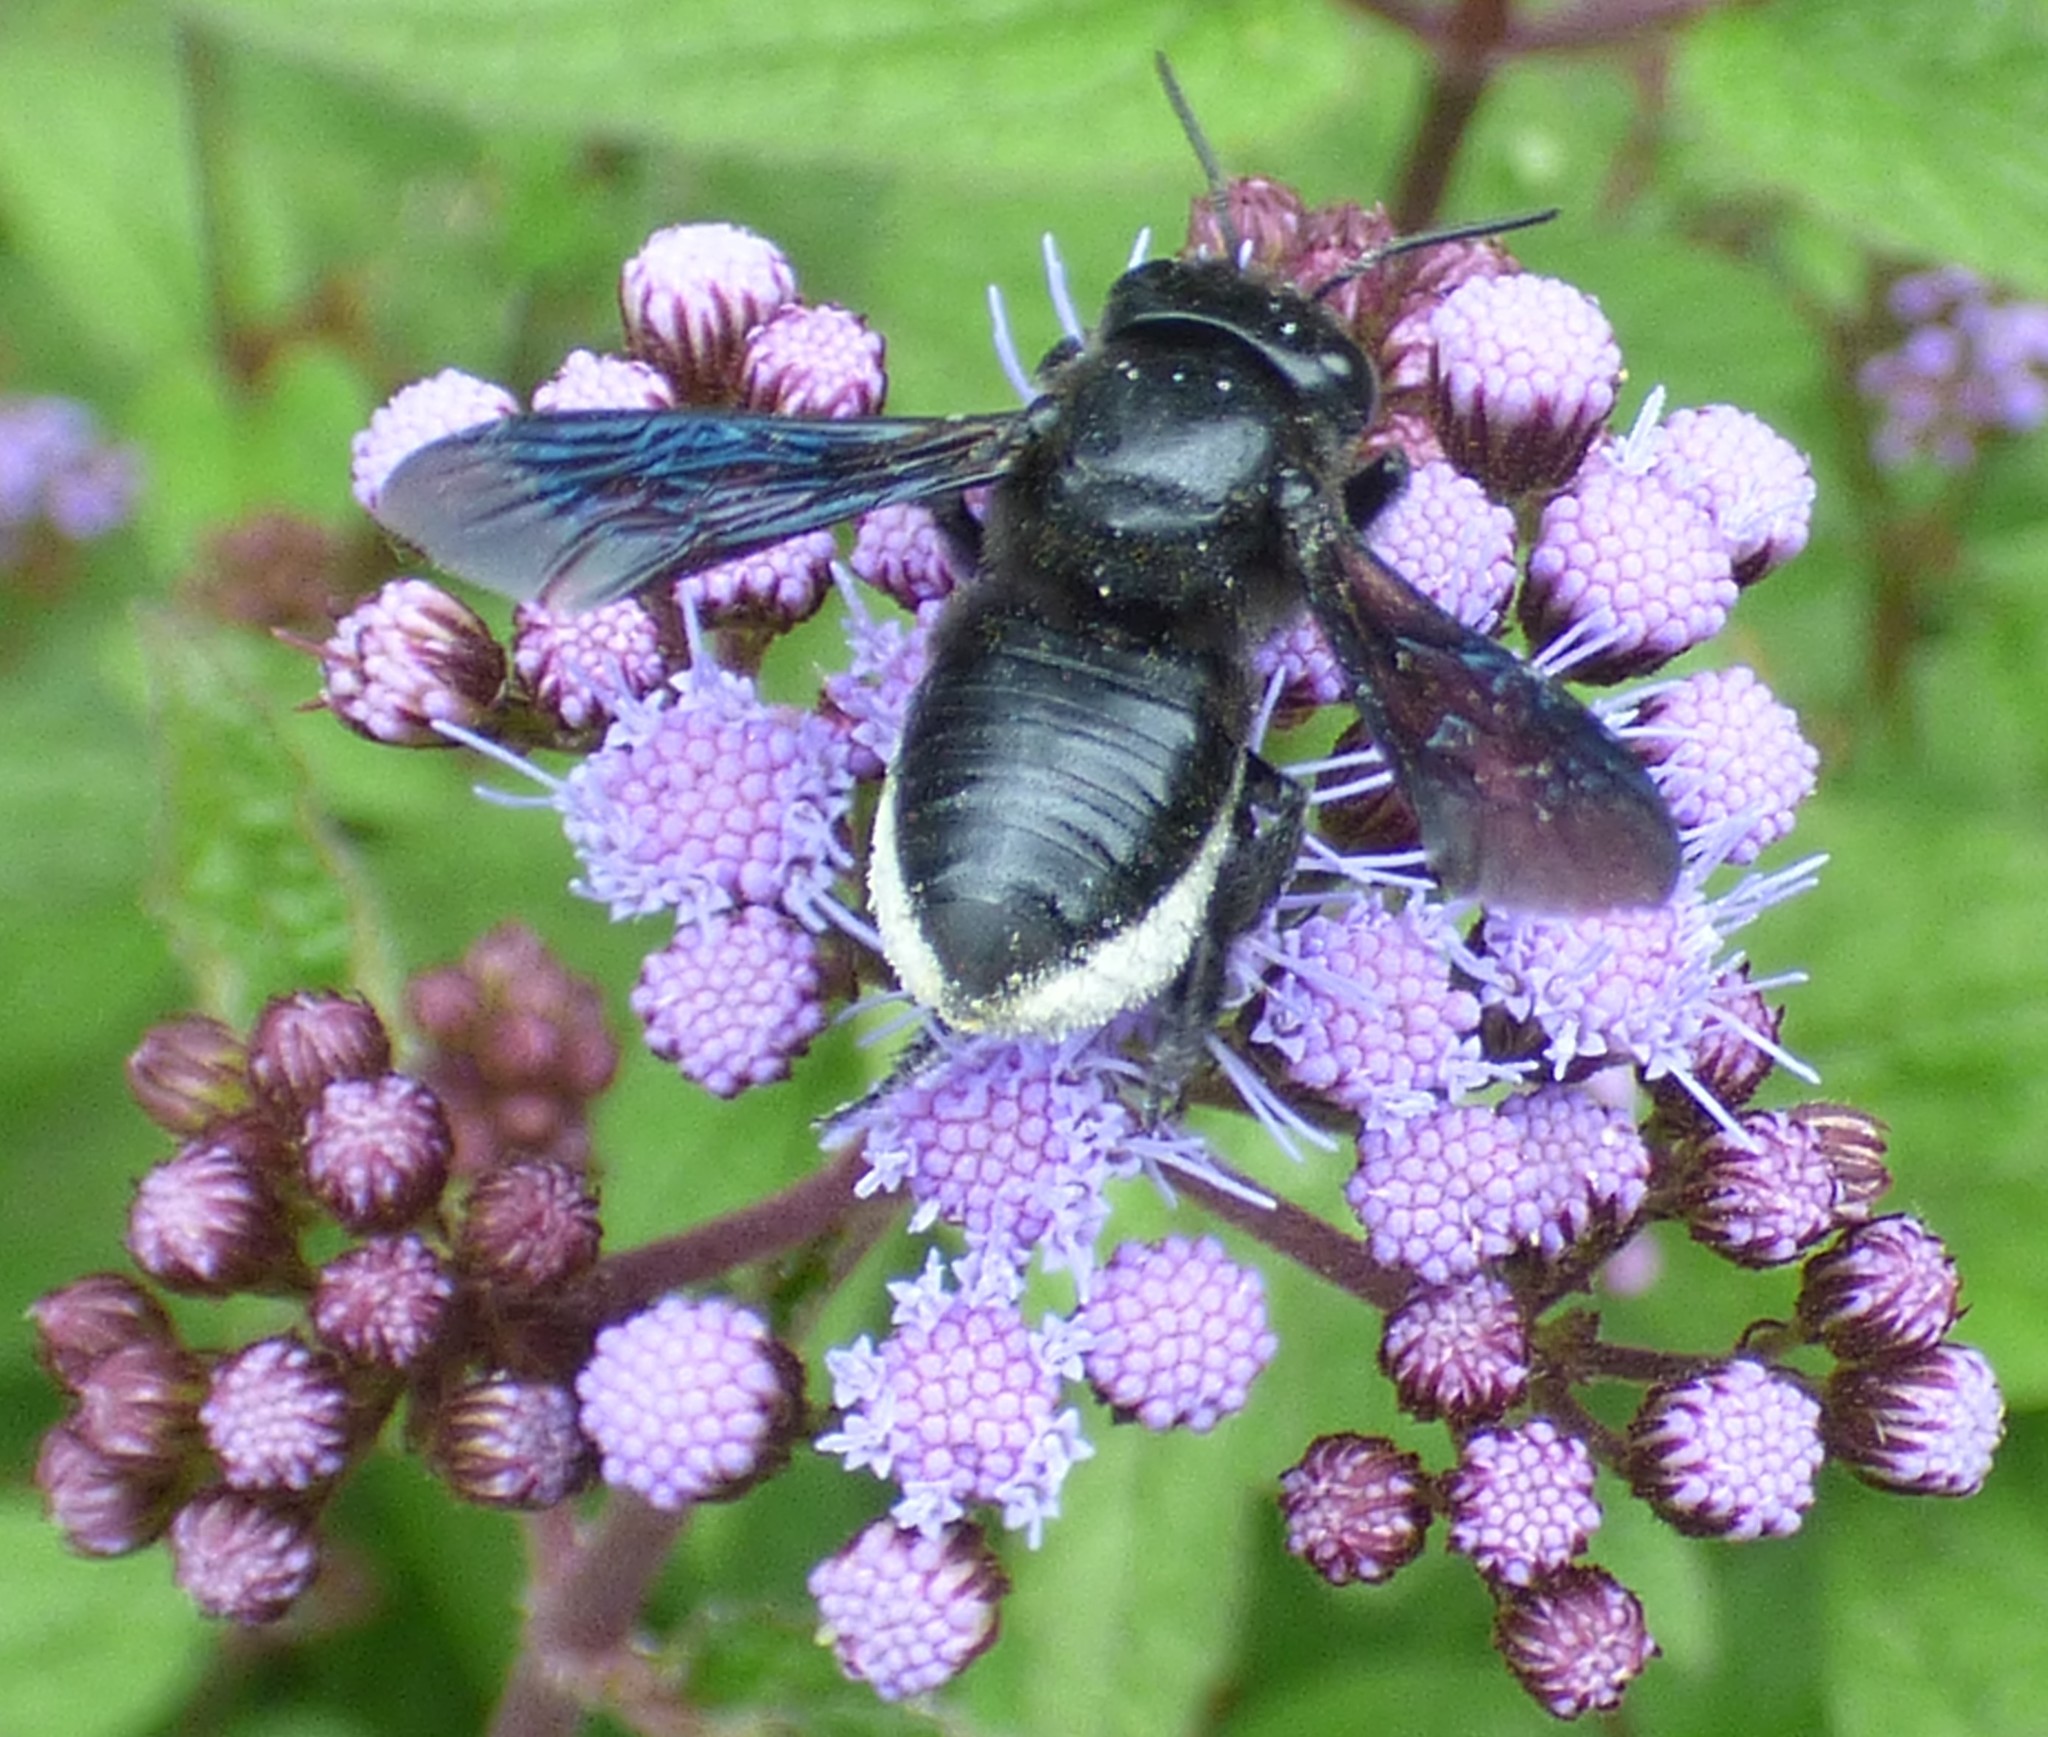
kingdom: Animalia
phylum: Arthropoda
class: Insecta
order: Hymenoptera
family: Megachilidae
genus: Megachile
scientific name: Megachile xylocopoides
